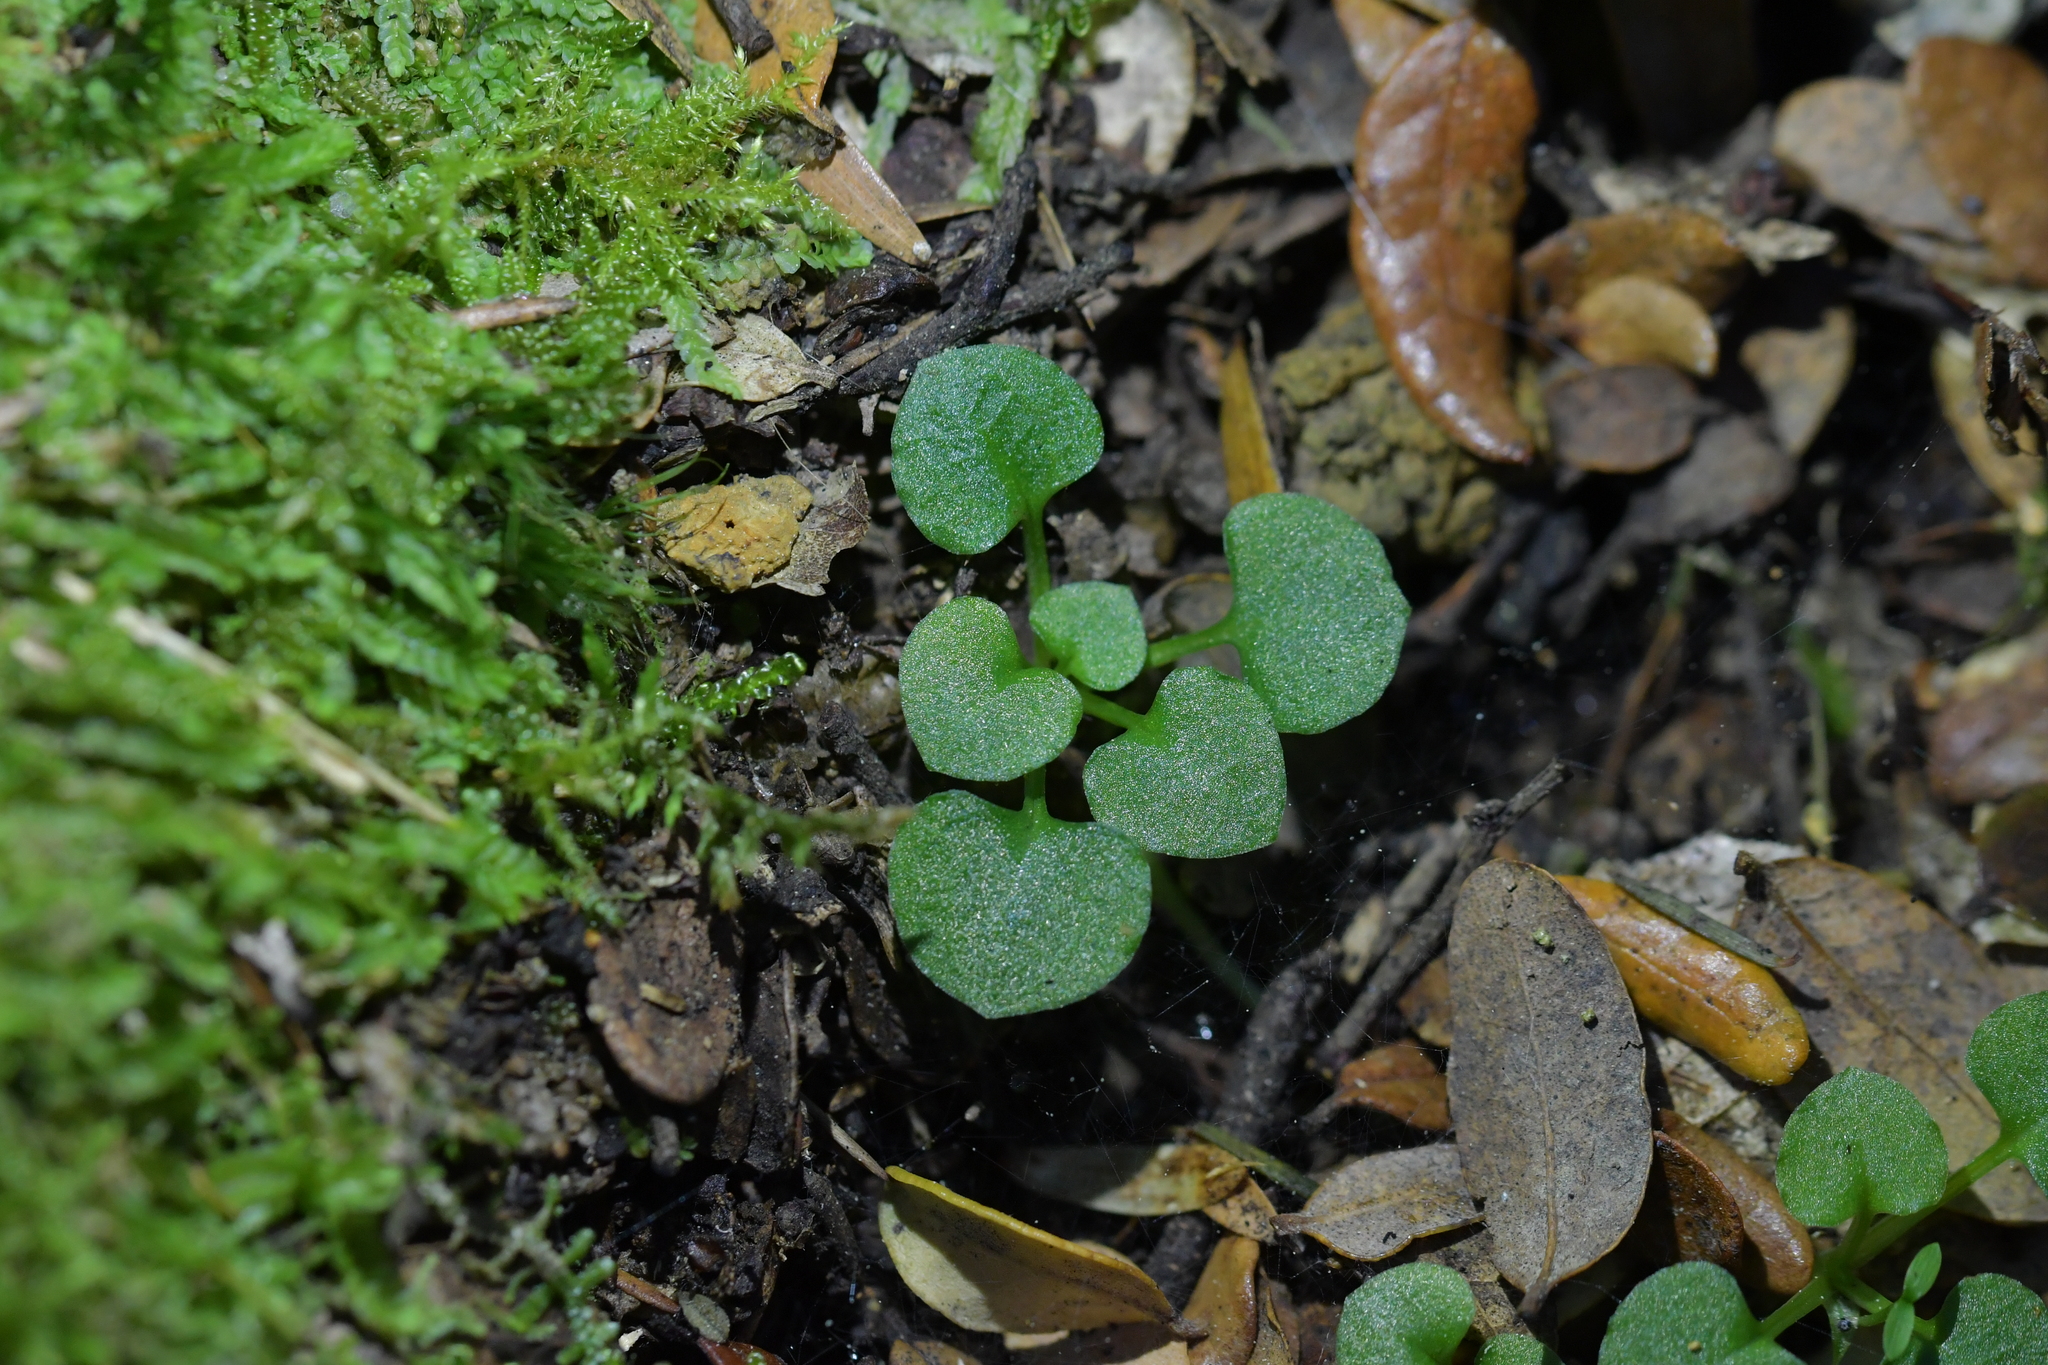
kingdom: Plantae
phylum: Tracheophyta
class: Liliopsida
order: Asparagales
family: Orchidaceae
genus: Pterostylis
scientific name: Pterostylis alobula
